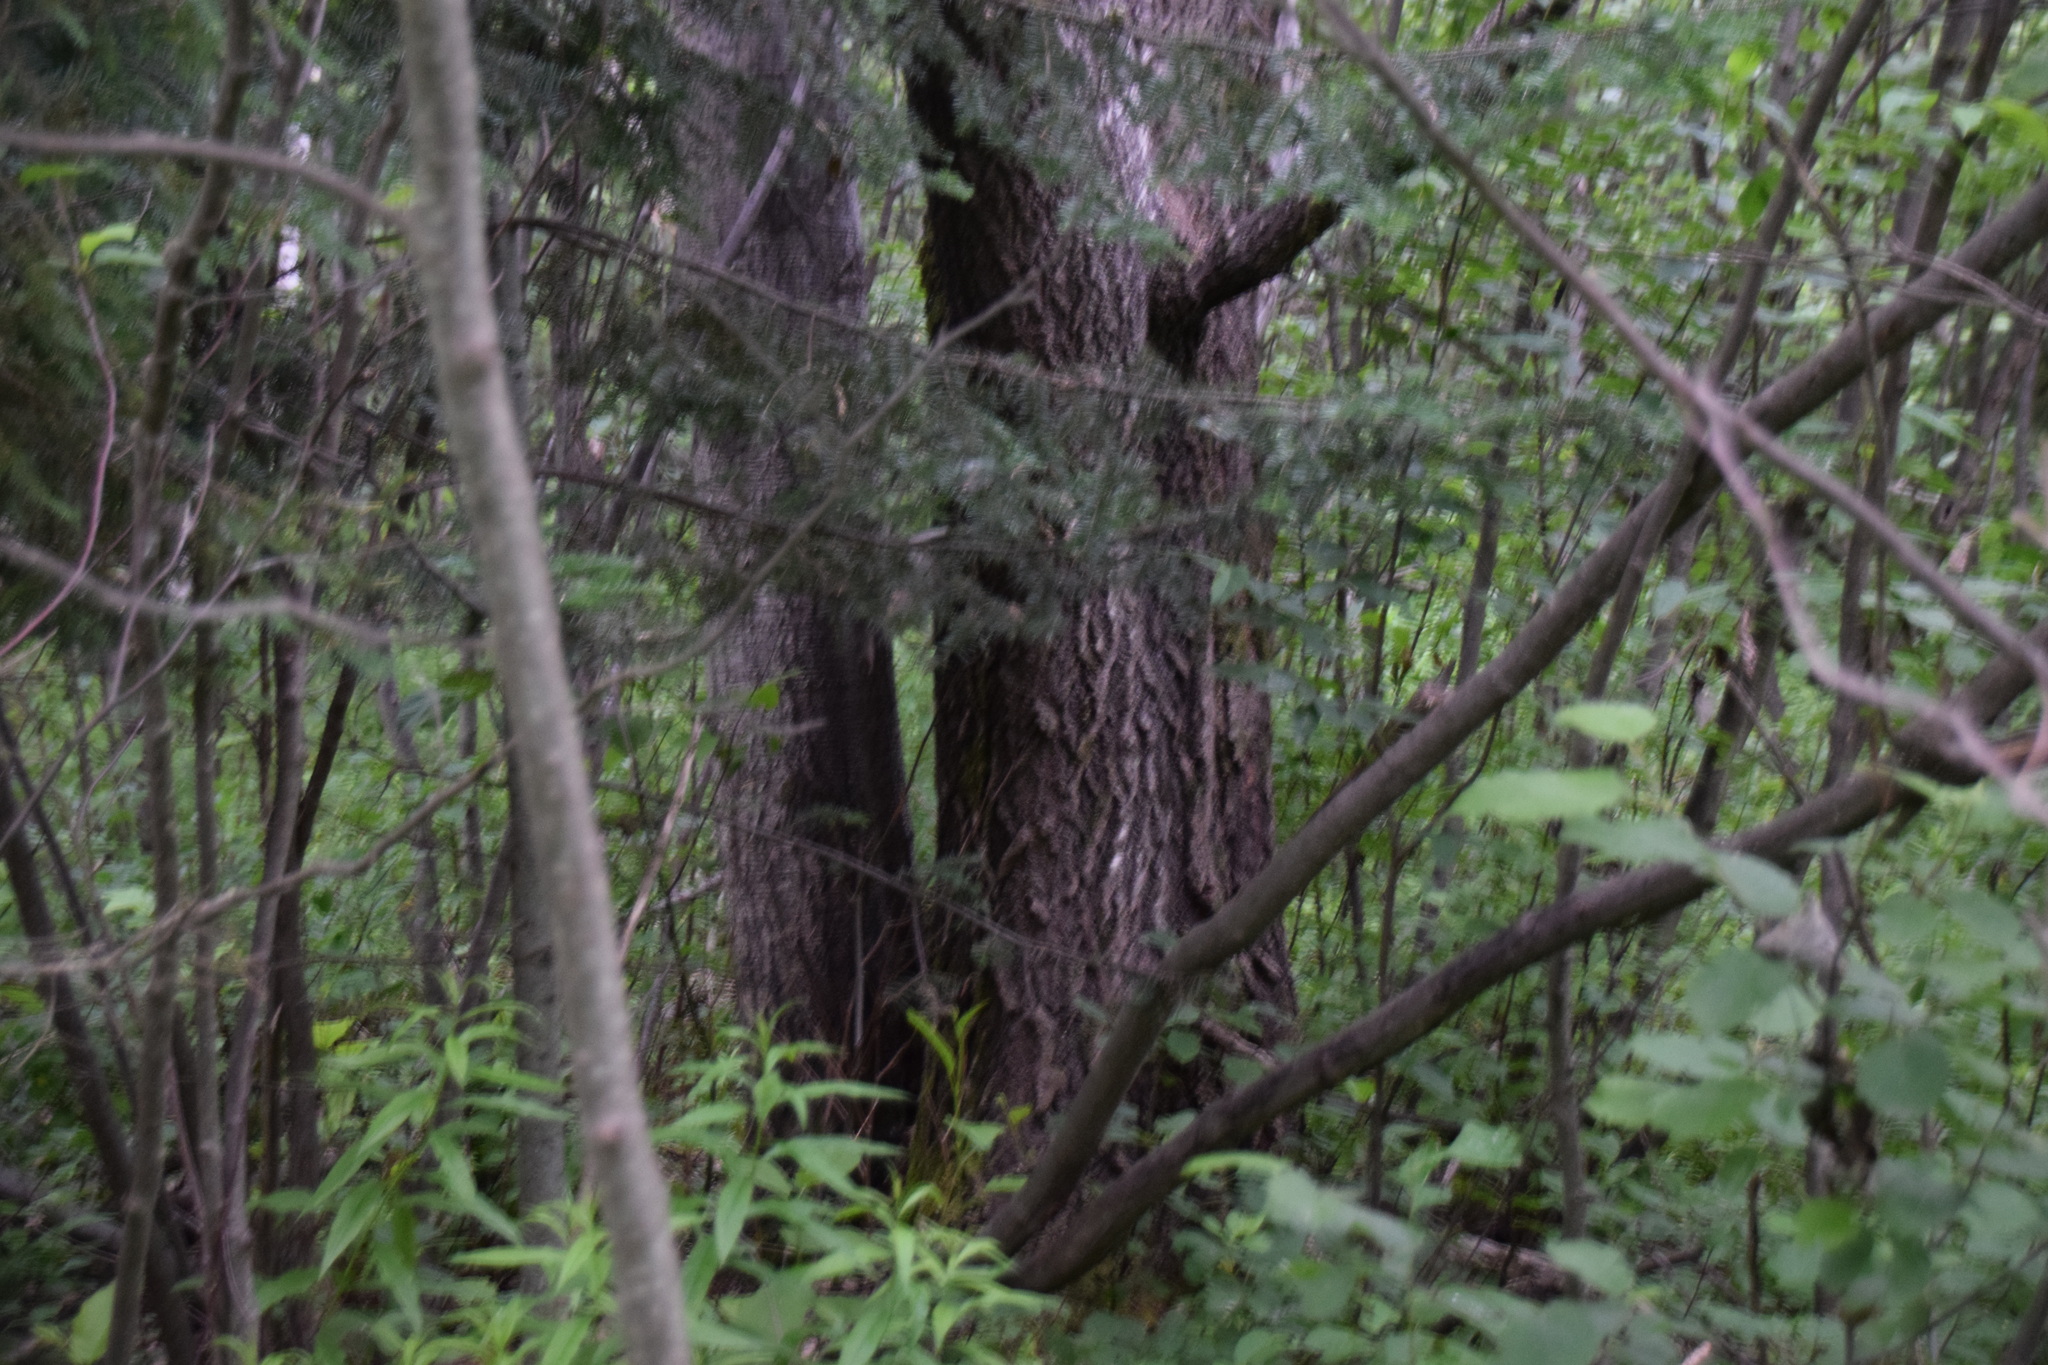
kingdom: Plantae
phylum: Tracheophyta
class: Magnoliopsida
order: Malpighiales
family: Salicaceae
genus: Populus
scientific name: Populus grandidentata
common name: Bigtooth aspen
